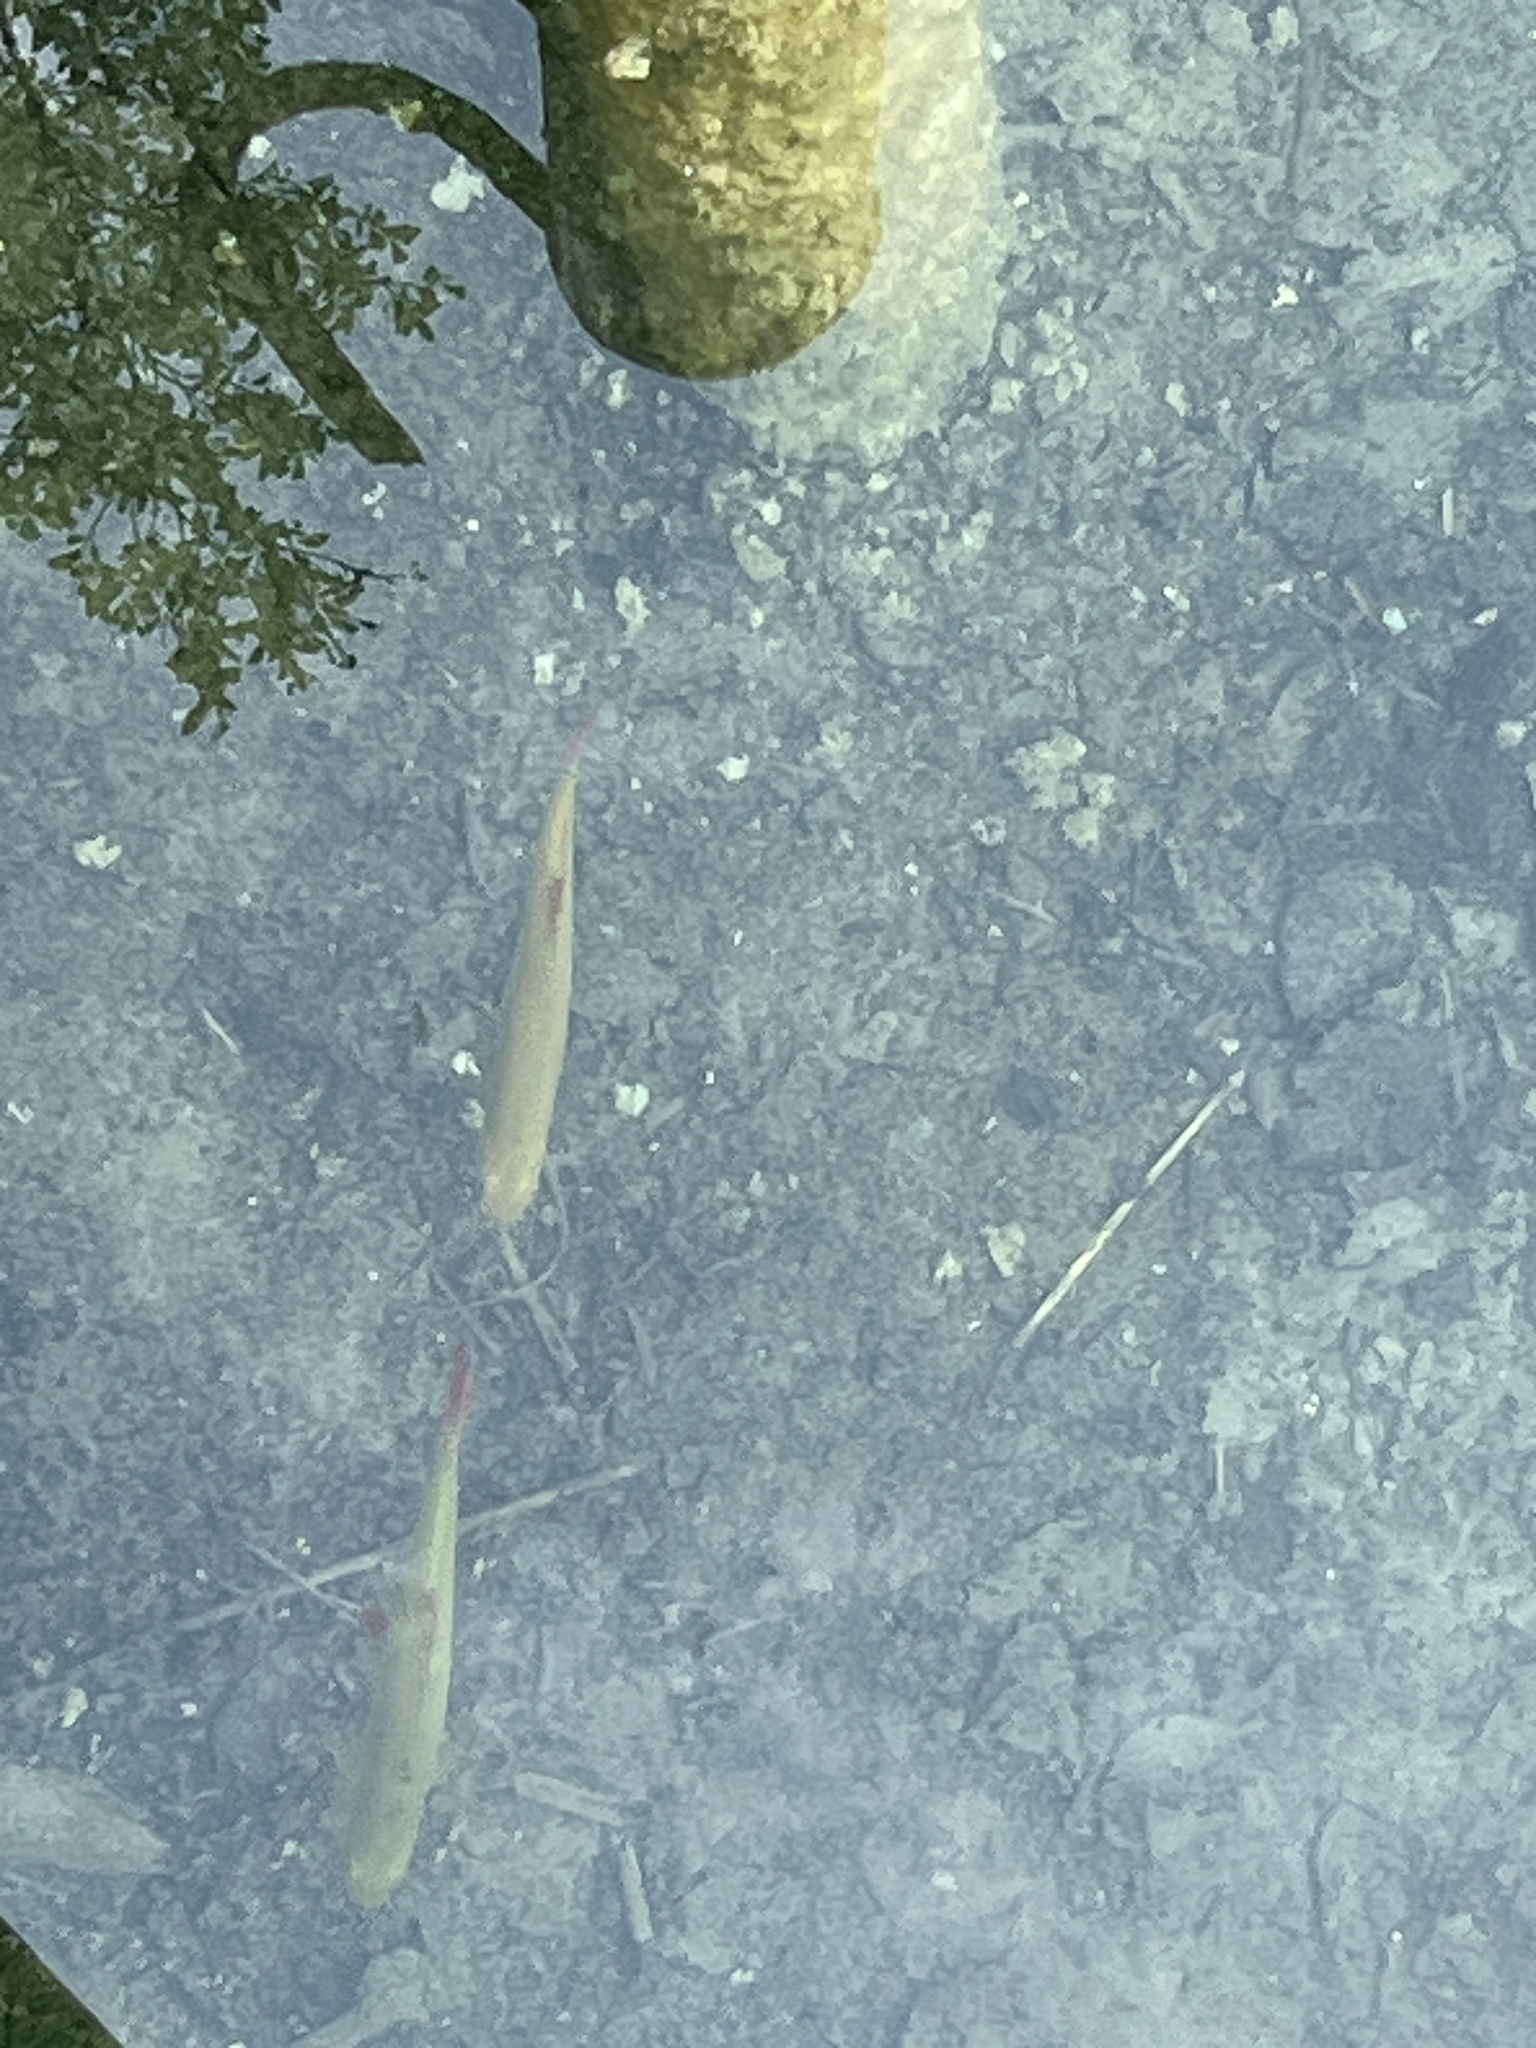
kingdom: Animalia
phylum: Chordata
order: Cypriniformes
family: Cyprinidae
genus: Scardinius
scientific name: Scardinius erythrophthalmus
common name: Rudd
